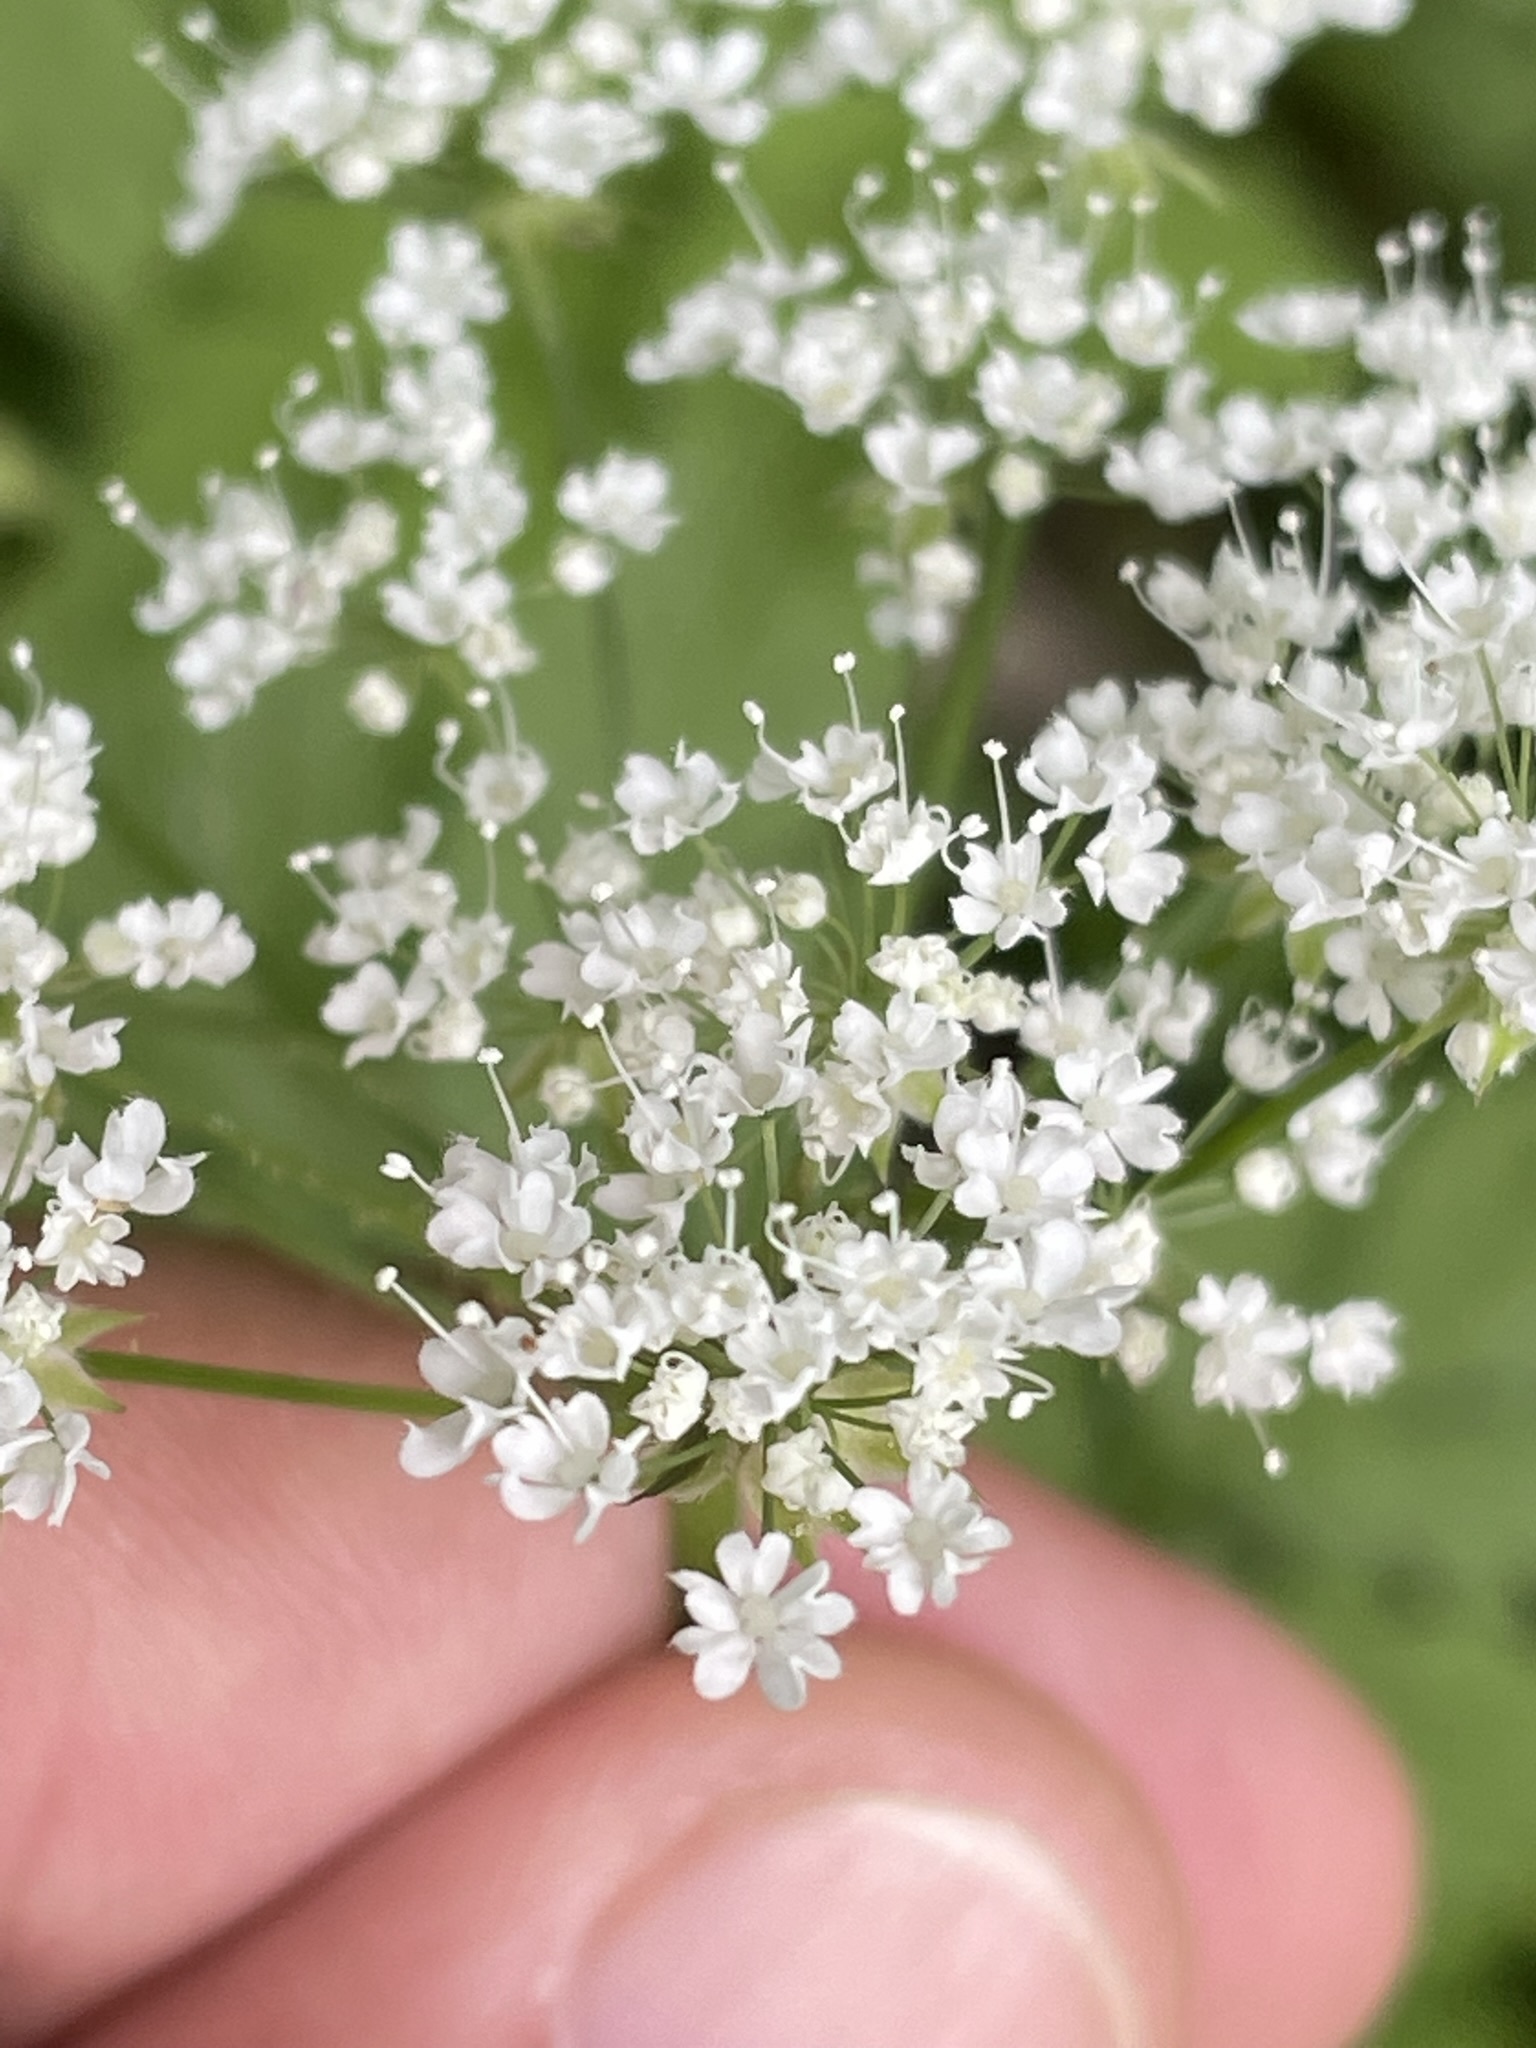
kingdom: Plantae
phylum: Tracheophyta
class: Magnoliopsida
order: Apiales
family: Apiaceae
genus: Chaerophyllum
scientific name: Chaerophyllum hirsutum
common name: Hairy chervil
